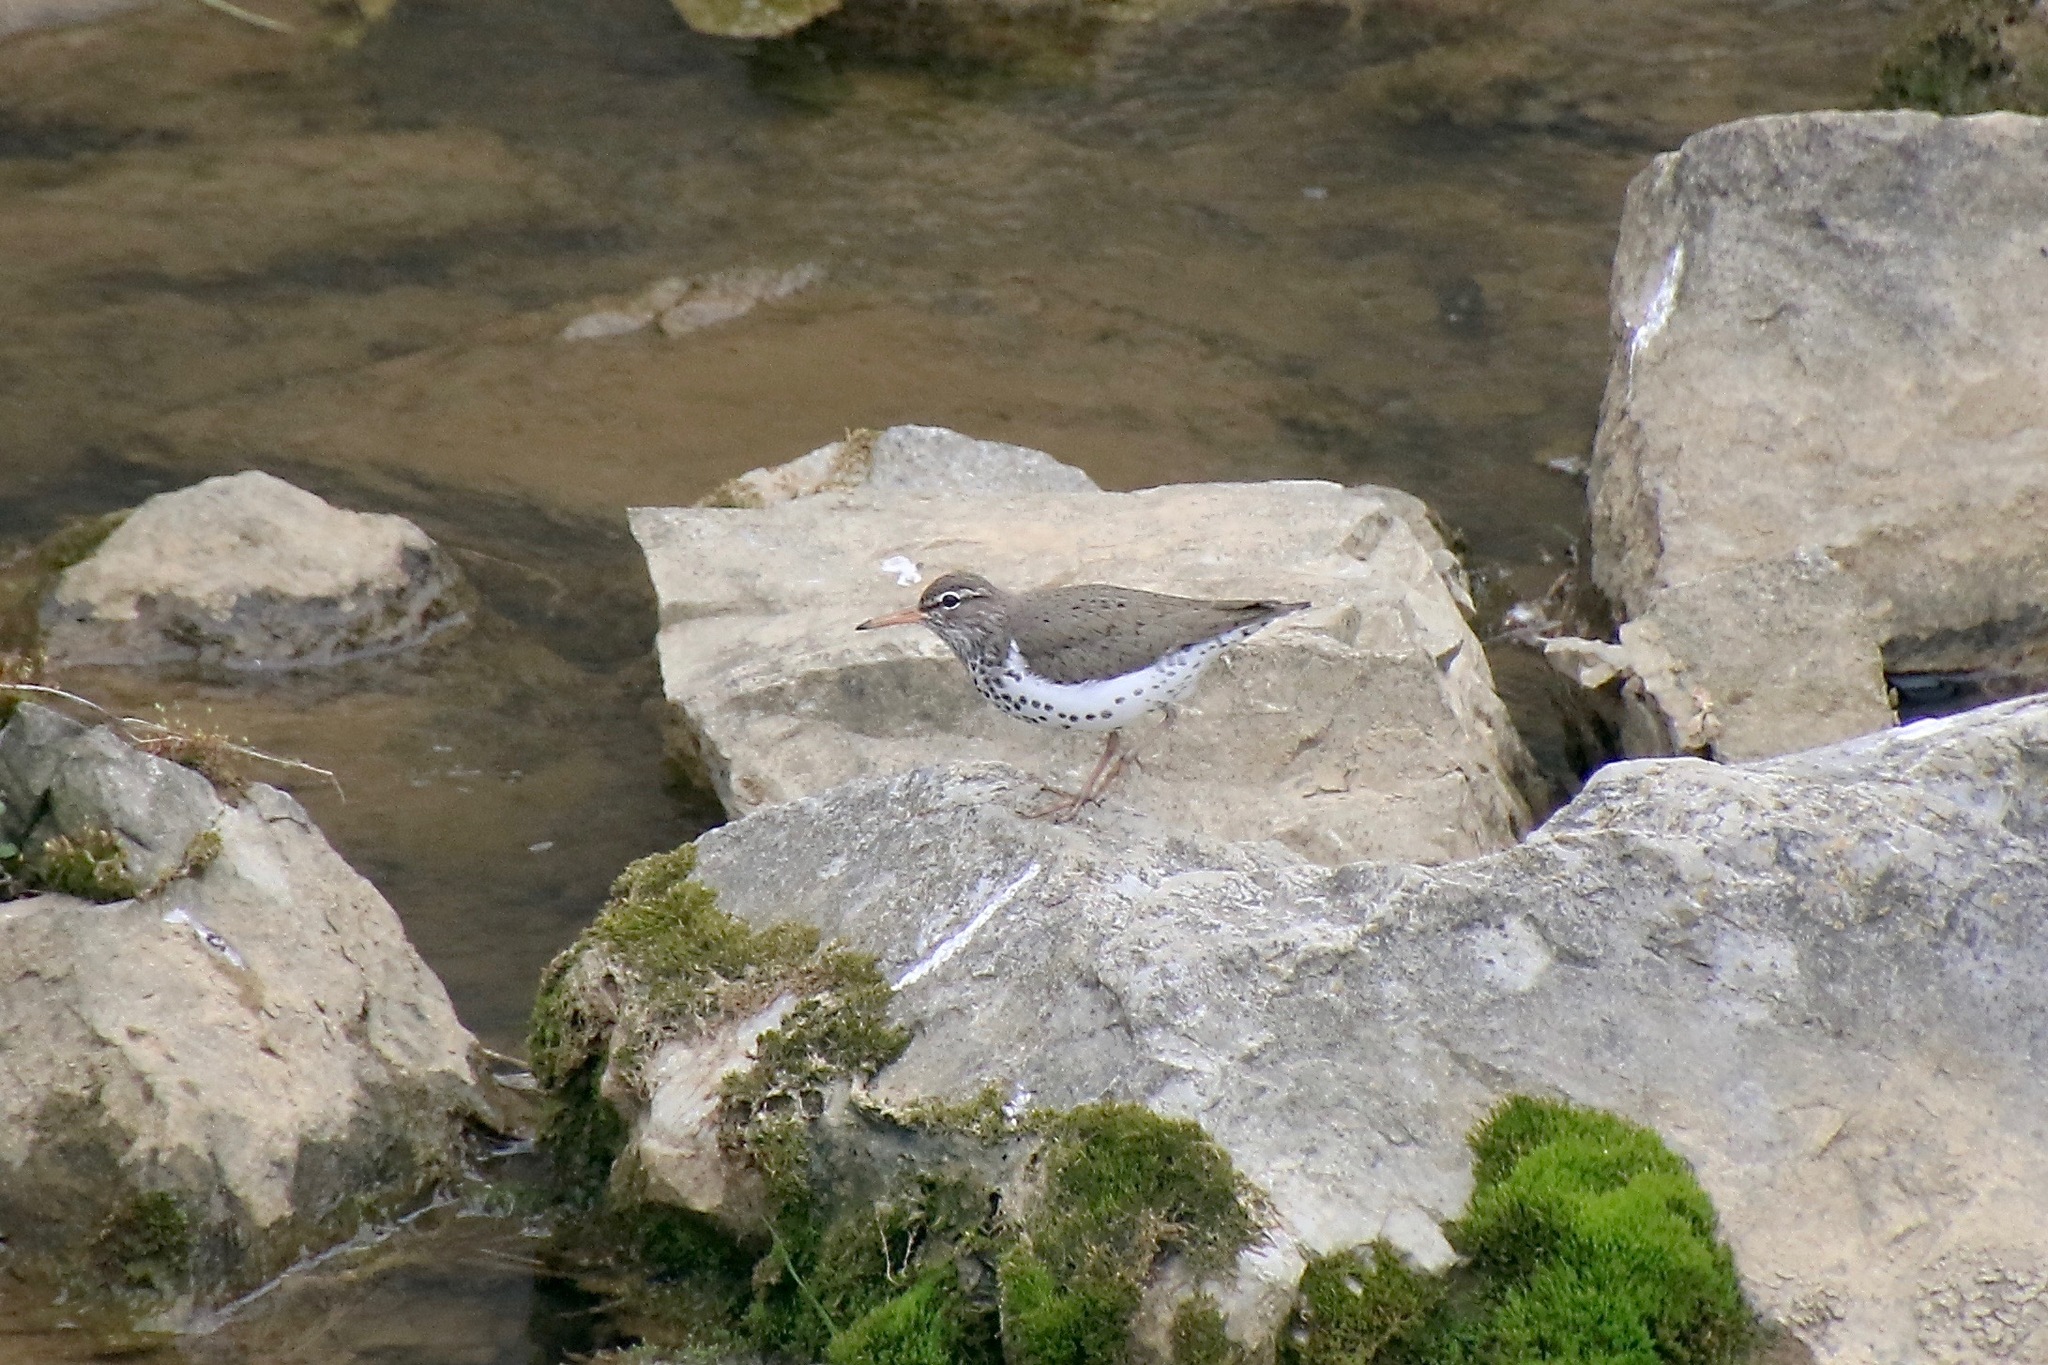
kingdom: Animalia
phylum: Chordata
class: Aves
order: Charadriiformes
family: Scolopacidae
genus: Actitis
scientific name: Actitis macularius
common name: Spotted sandpiper
